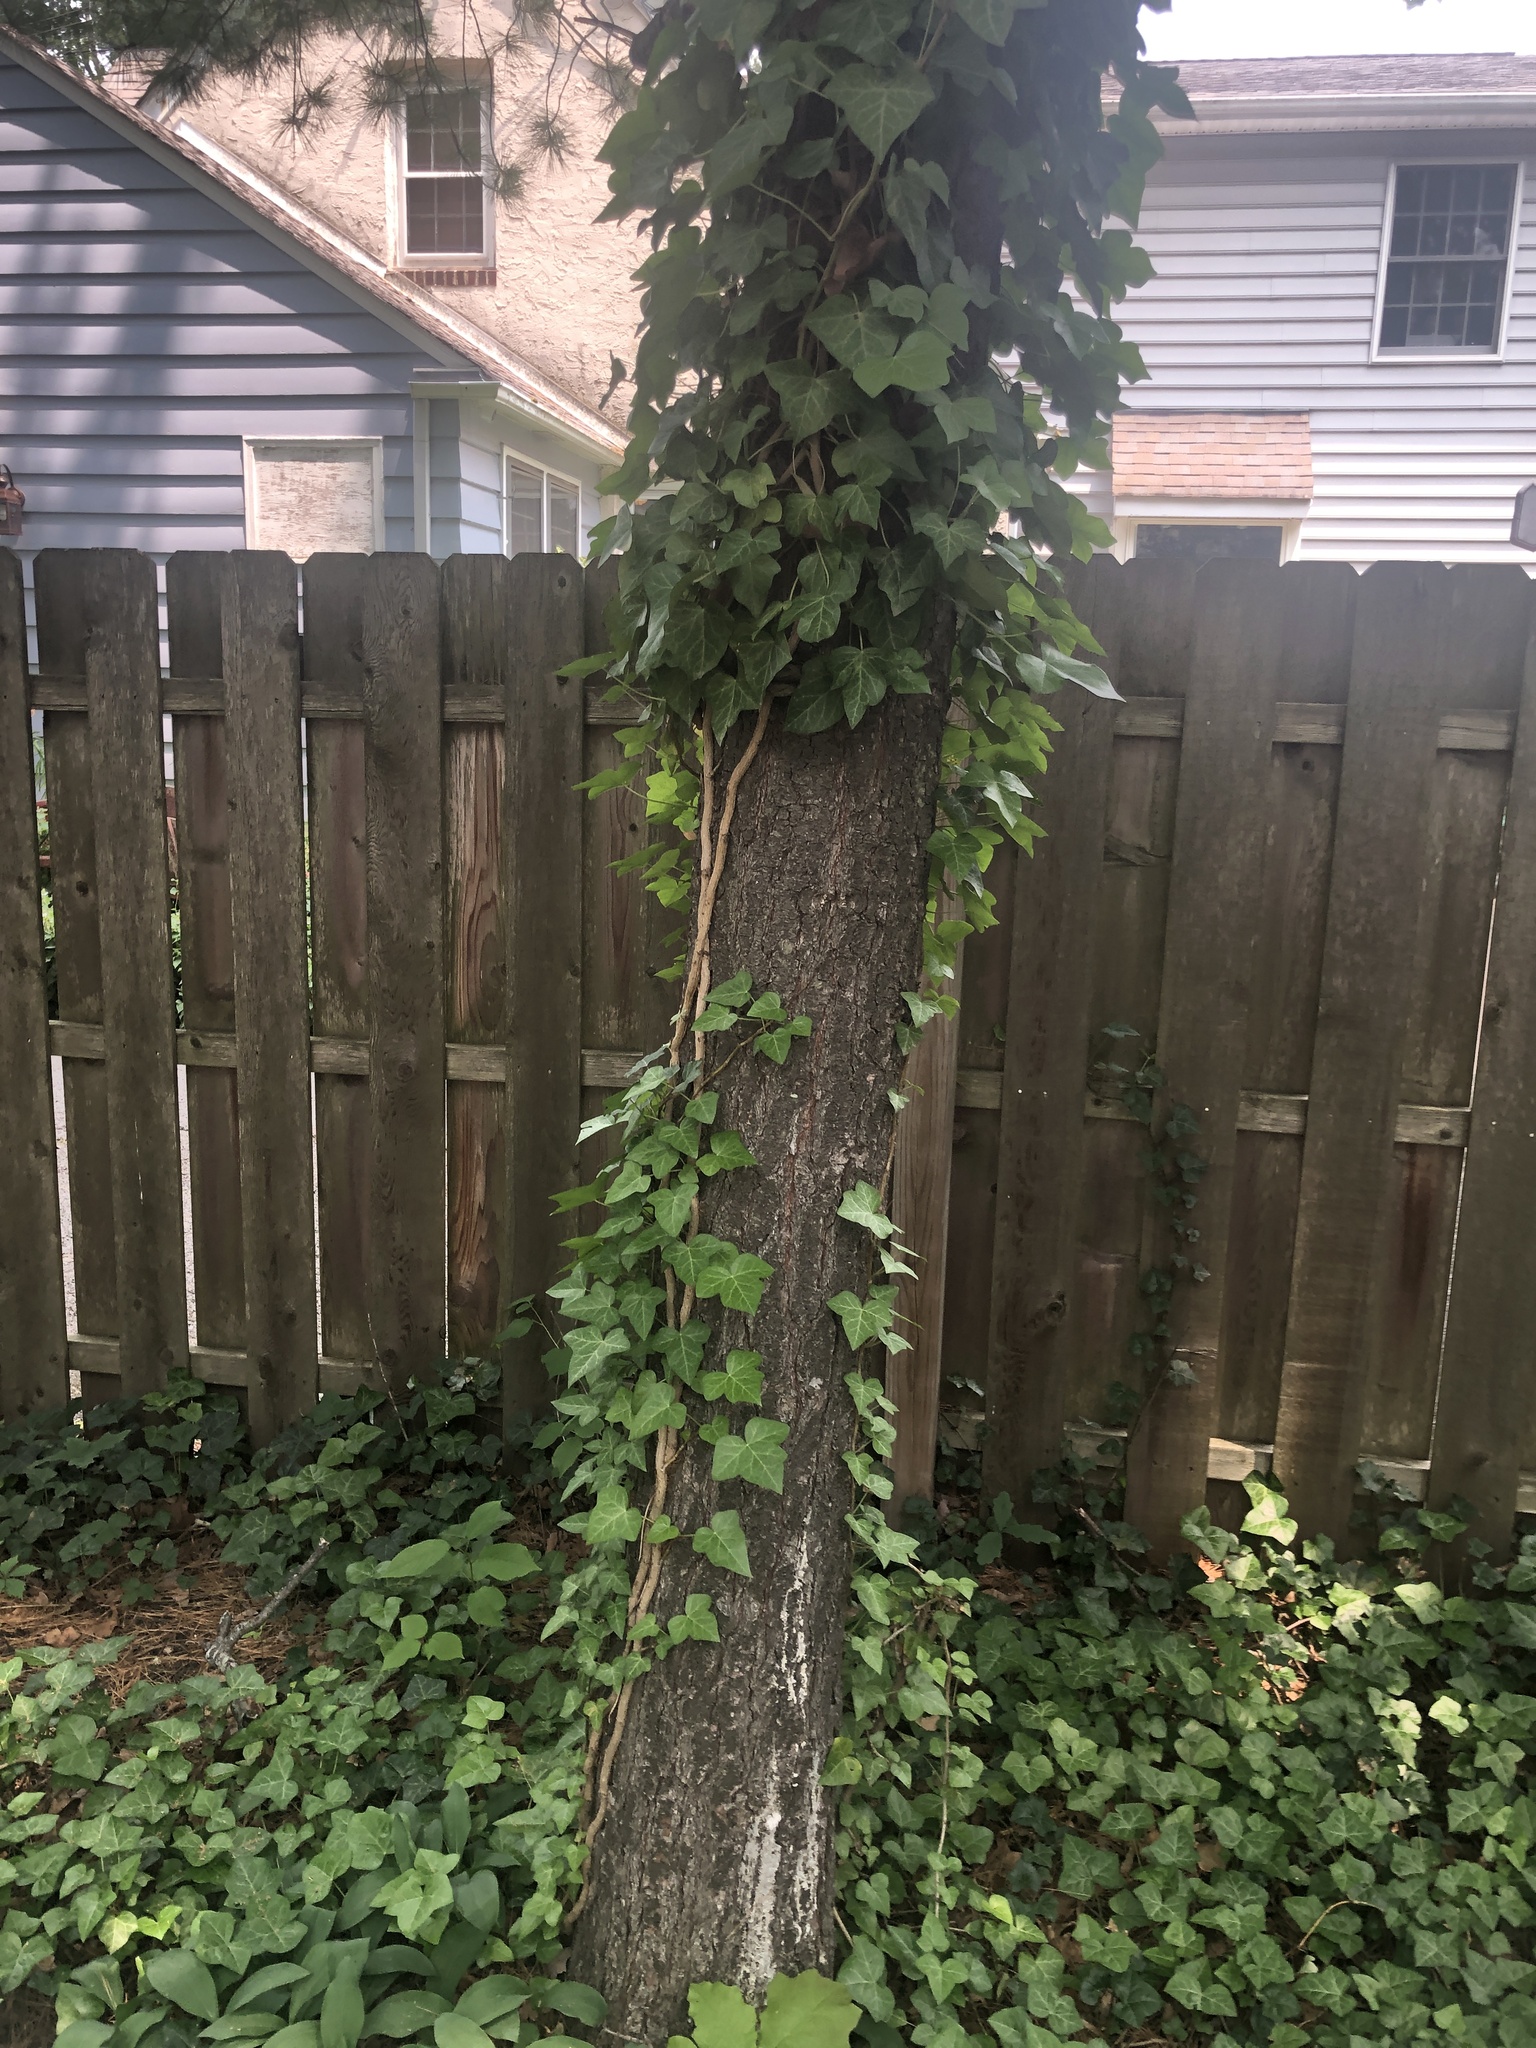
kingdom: Plantae
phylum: Tracheophyta
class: Magnoliopsida
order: Apiales
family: Araliaceae
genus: Hedera
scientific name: Hedera helix
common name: Ivy
